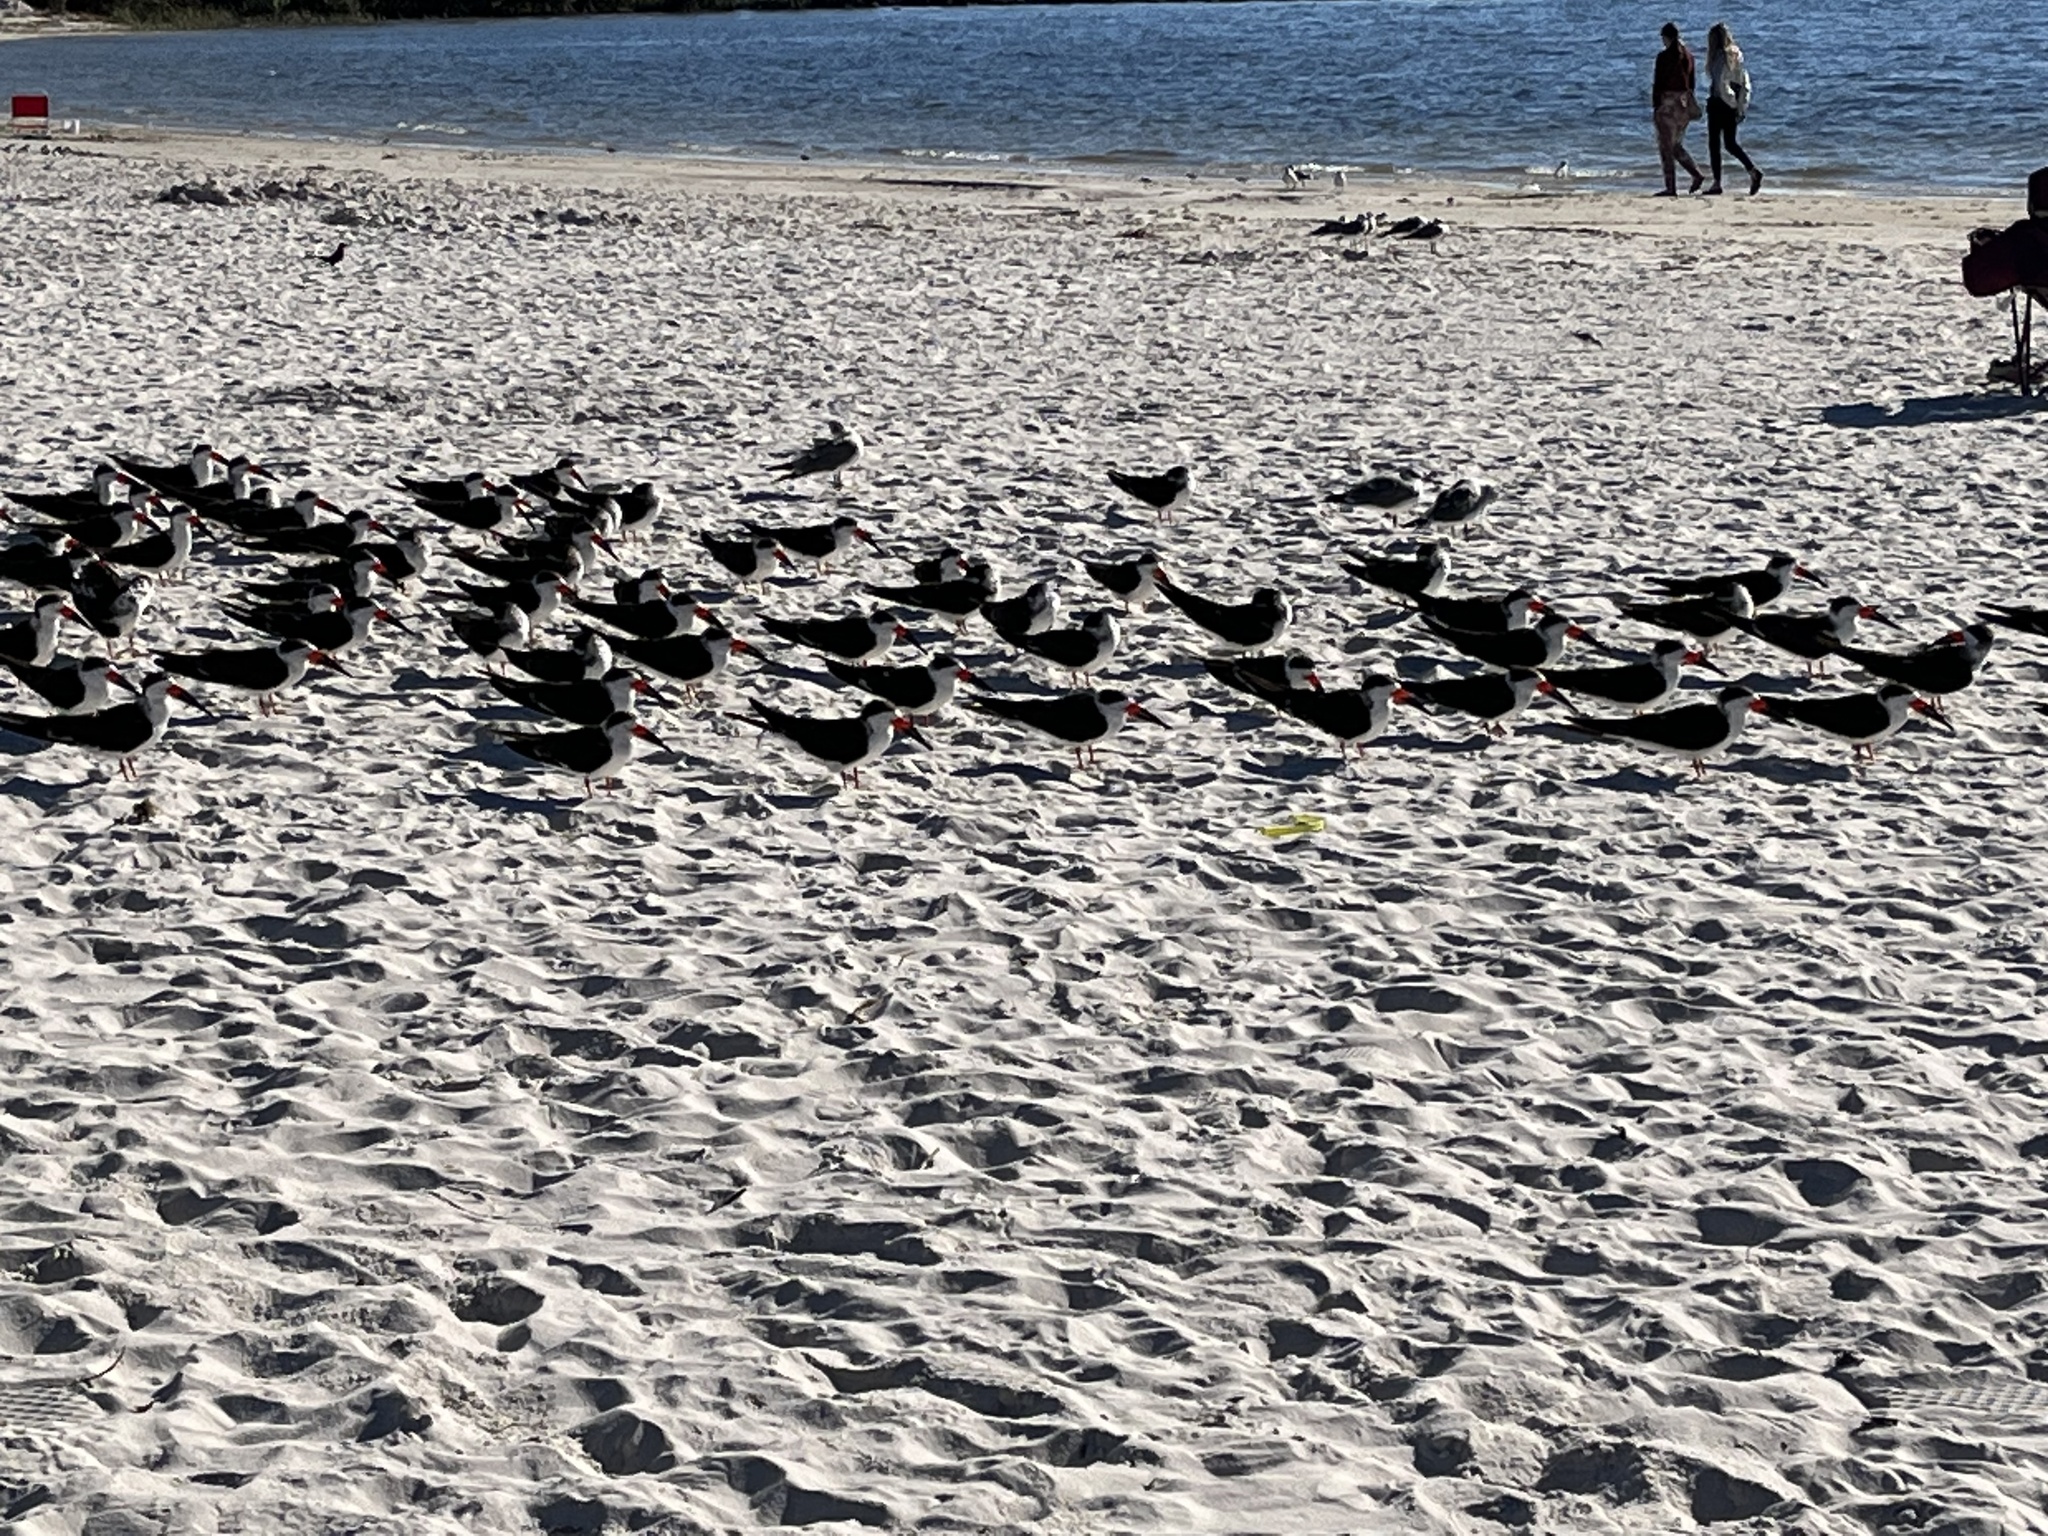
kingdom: Animalia
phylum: Chordata
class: Aves
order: Charadriiformes
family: Laridae
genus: Rynchops
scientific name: Rynchops niger
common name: Black skimmer
